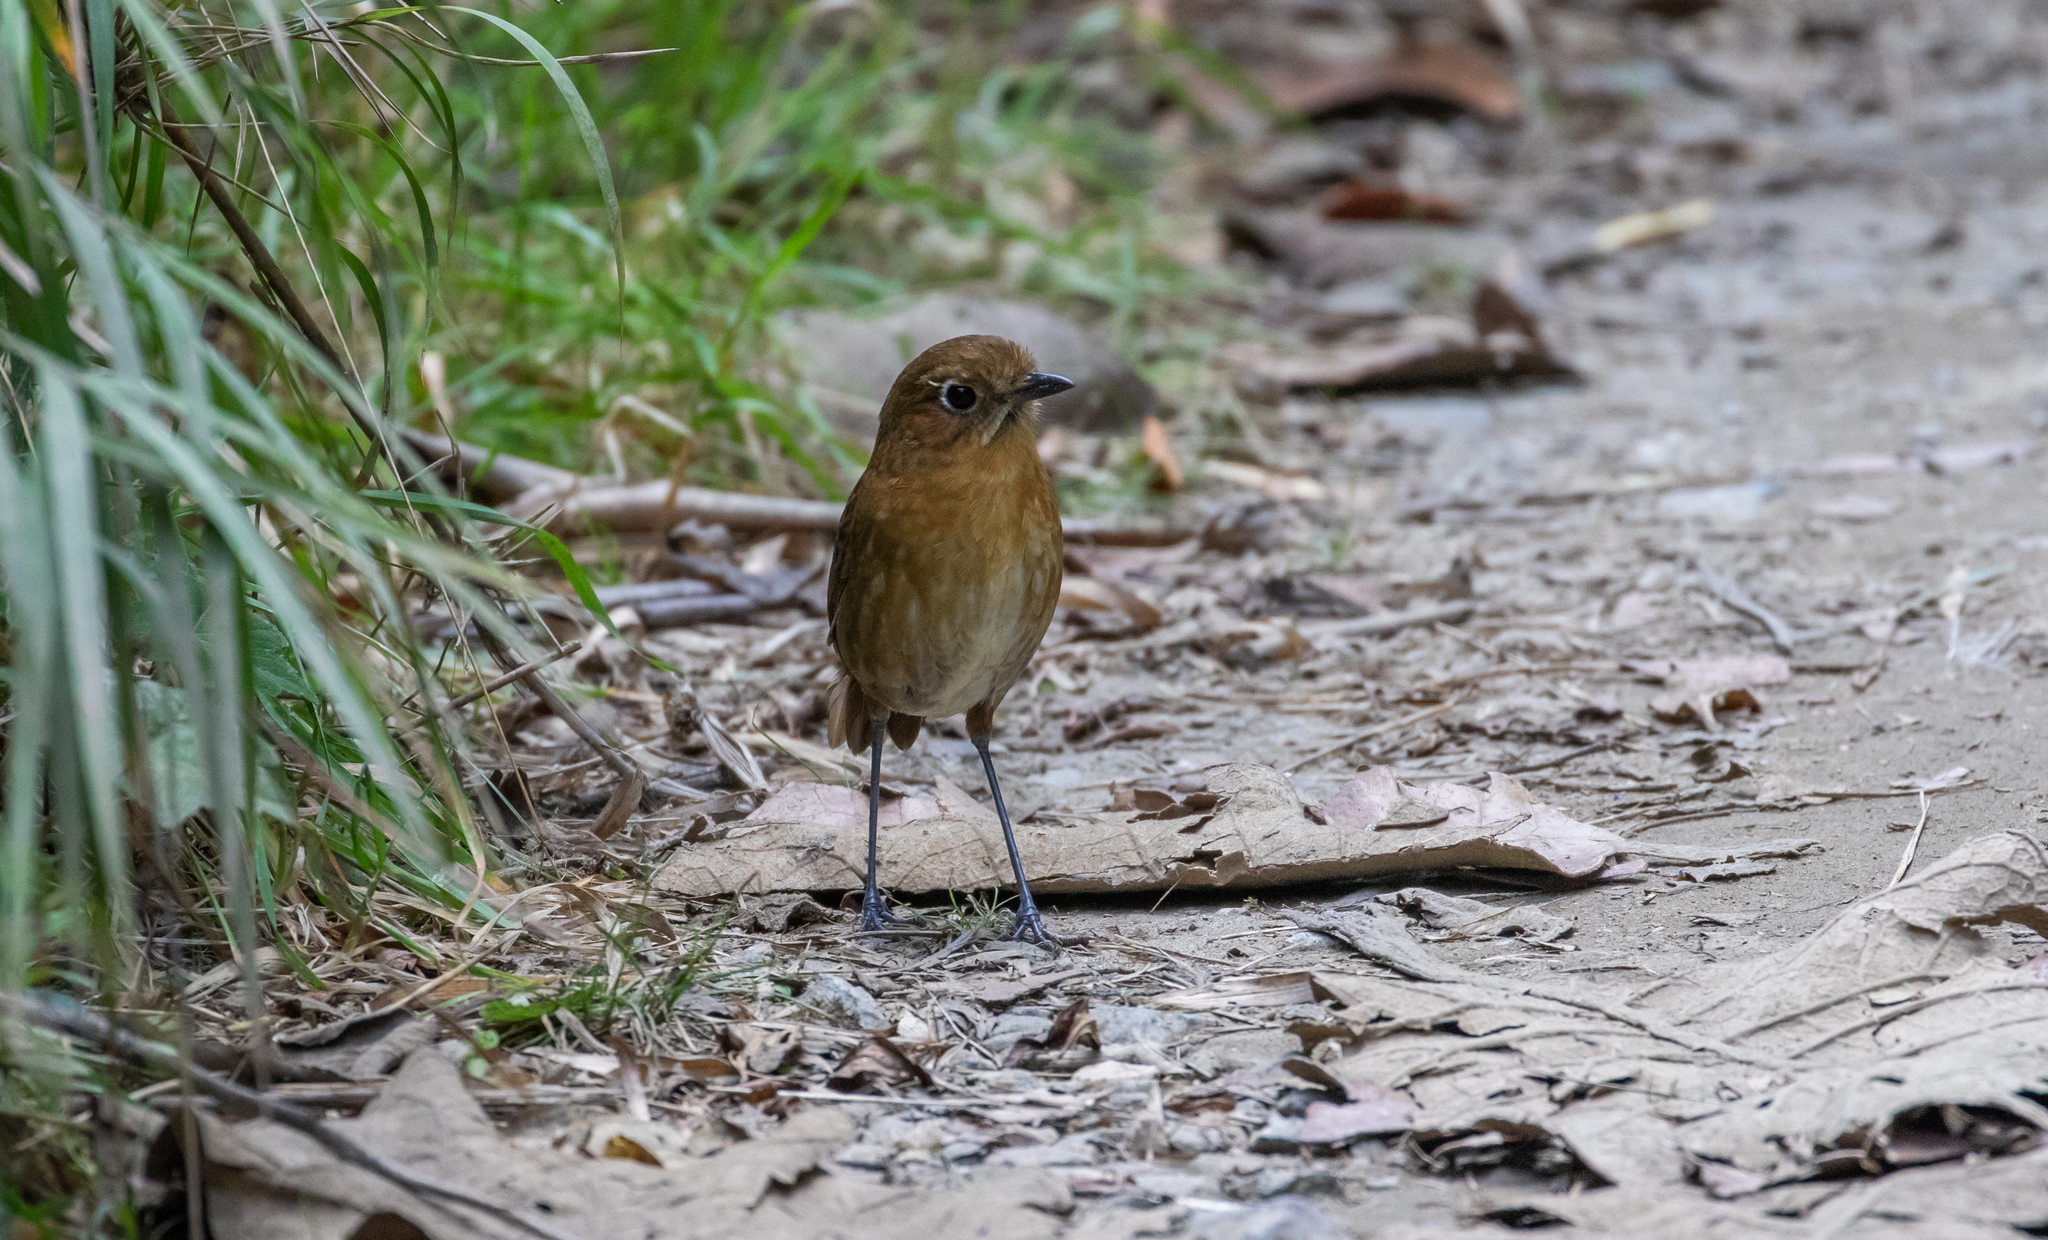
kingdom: Animalia
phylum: Chordata
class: Aves
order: Passeriformes
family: Grallariidae
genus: Grallaria
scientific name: Grallaria spatiator
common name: Sierra nevada antpitta
